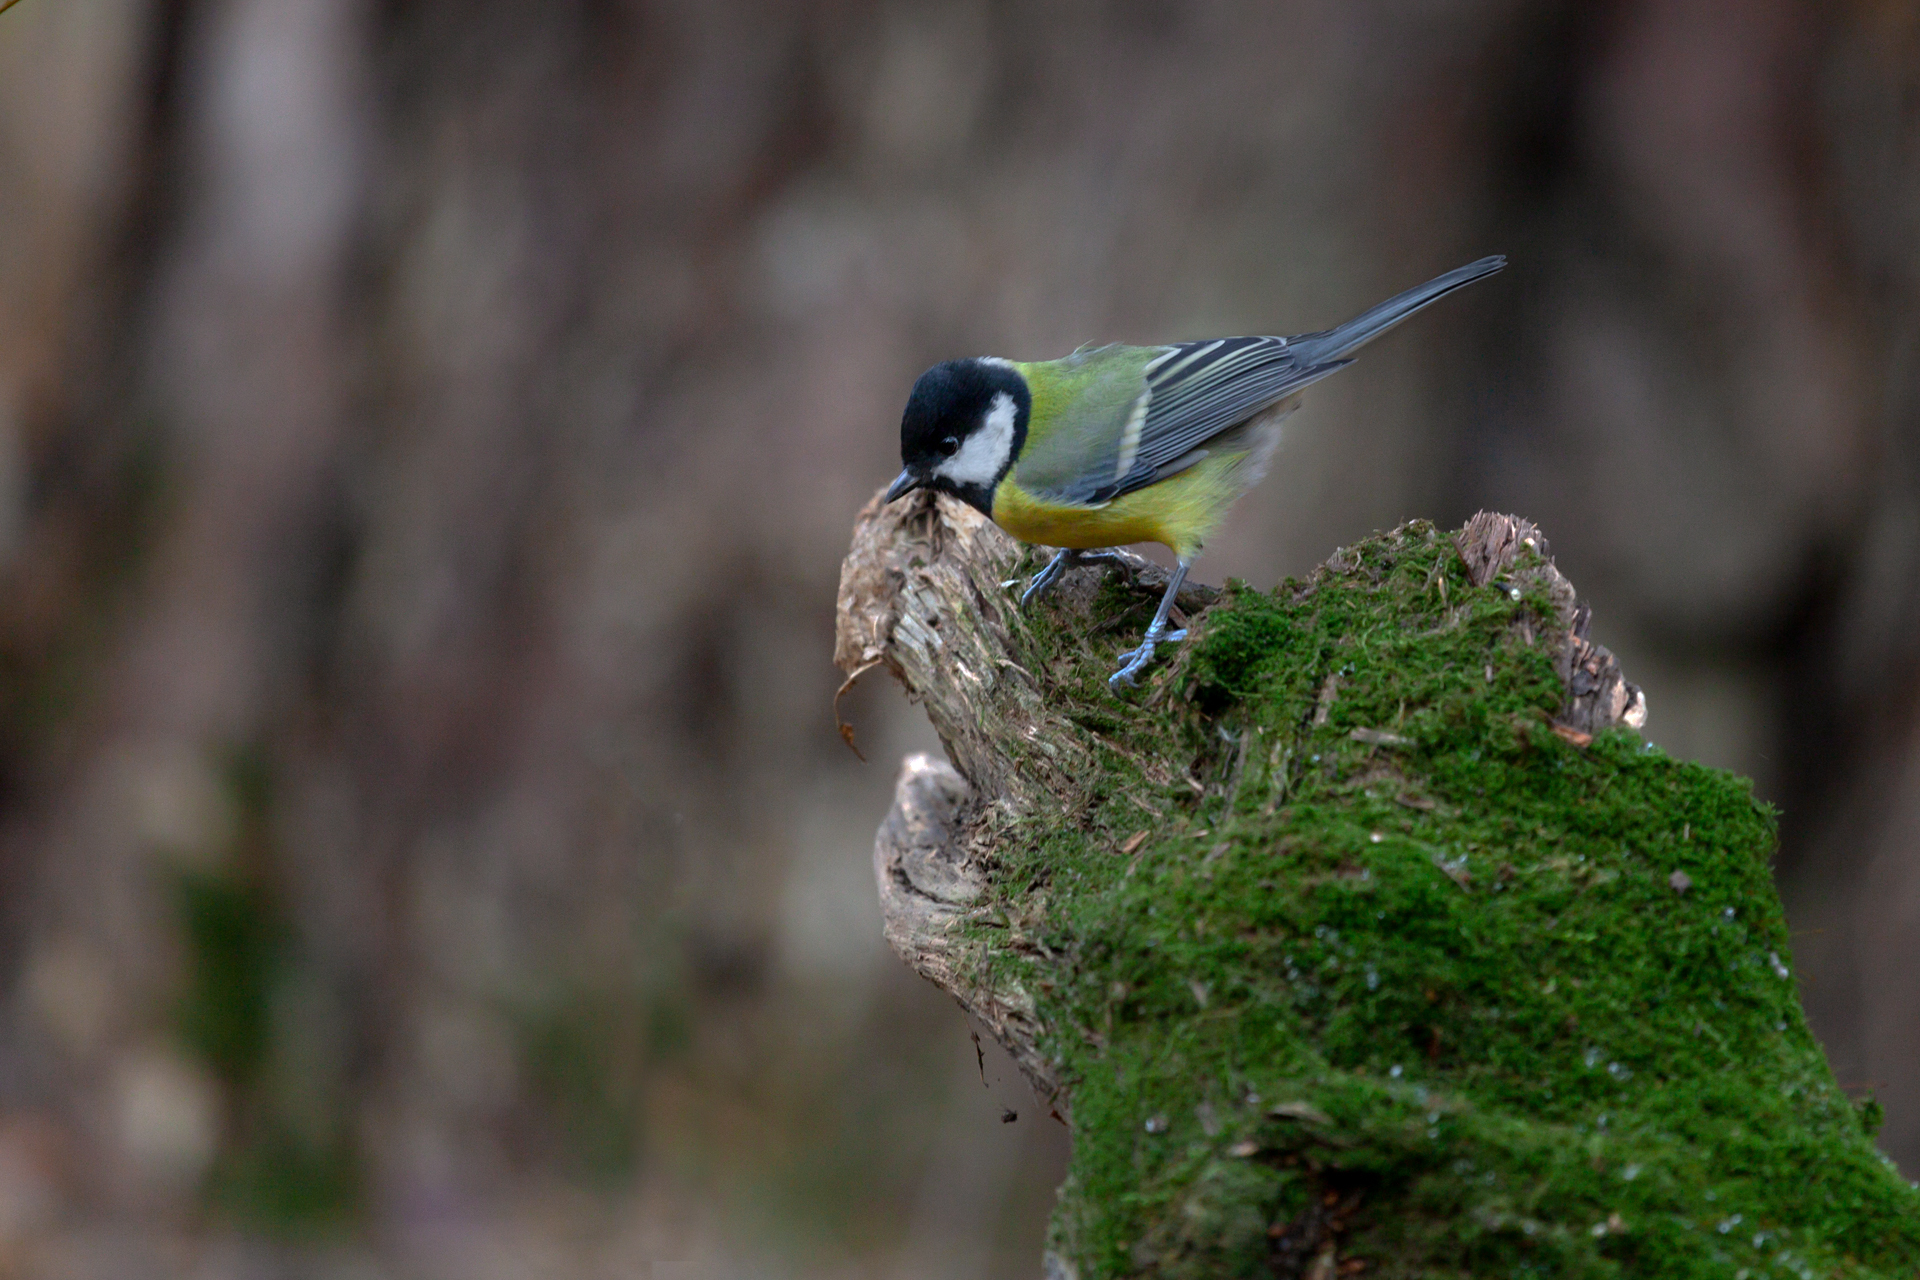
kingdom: Animalia
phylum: Chordata
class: Aves
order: Passeriformes
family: Paridae
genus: Parus
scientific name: Parus major
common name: Great tit
